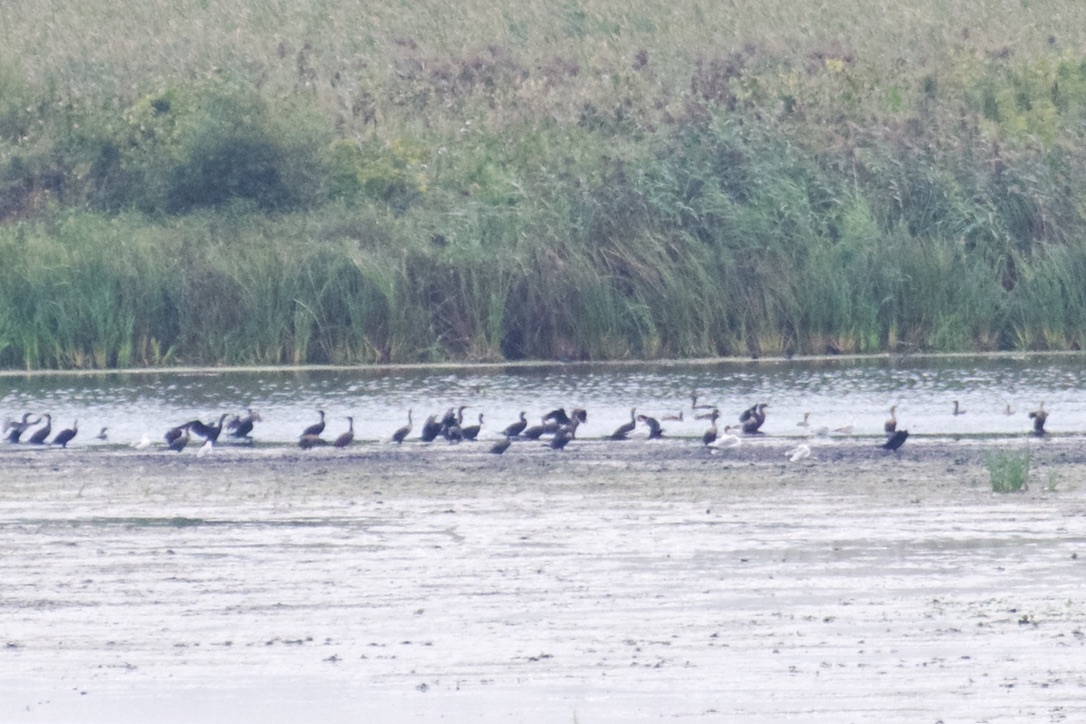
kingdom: Animalia
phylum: Chordata
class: Aves
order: Suliformes
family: Phalacrocoracidae
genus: Phalacrocorax
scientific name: Phalacrocorax auritus
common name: Double-crested cormorant
